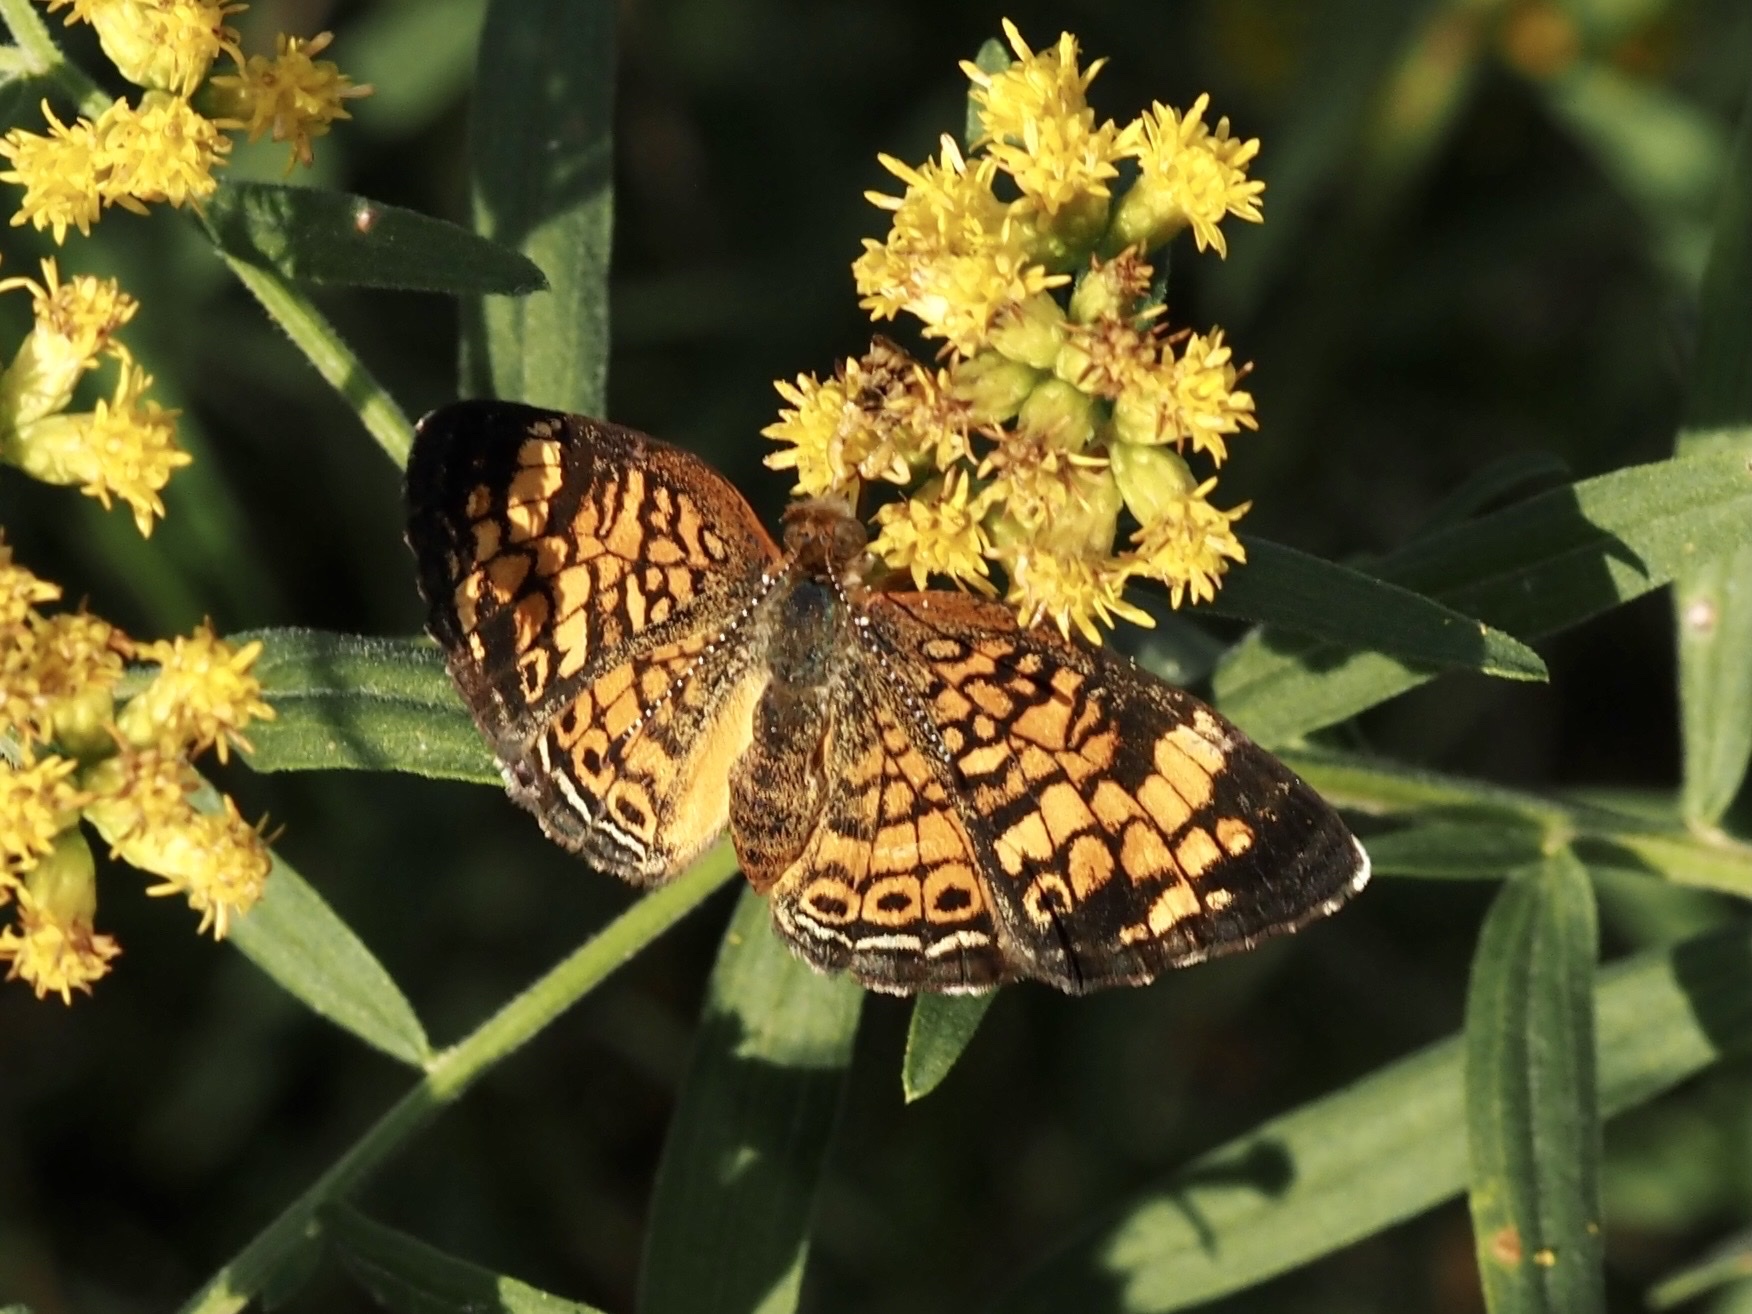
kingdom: Animalia
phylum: Arthropoda
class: Insecta
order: Lepidoptera
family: Nymphalidae
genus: Phyciodes
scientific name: Phyciodes tharos
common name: Pearl crescent
